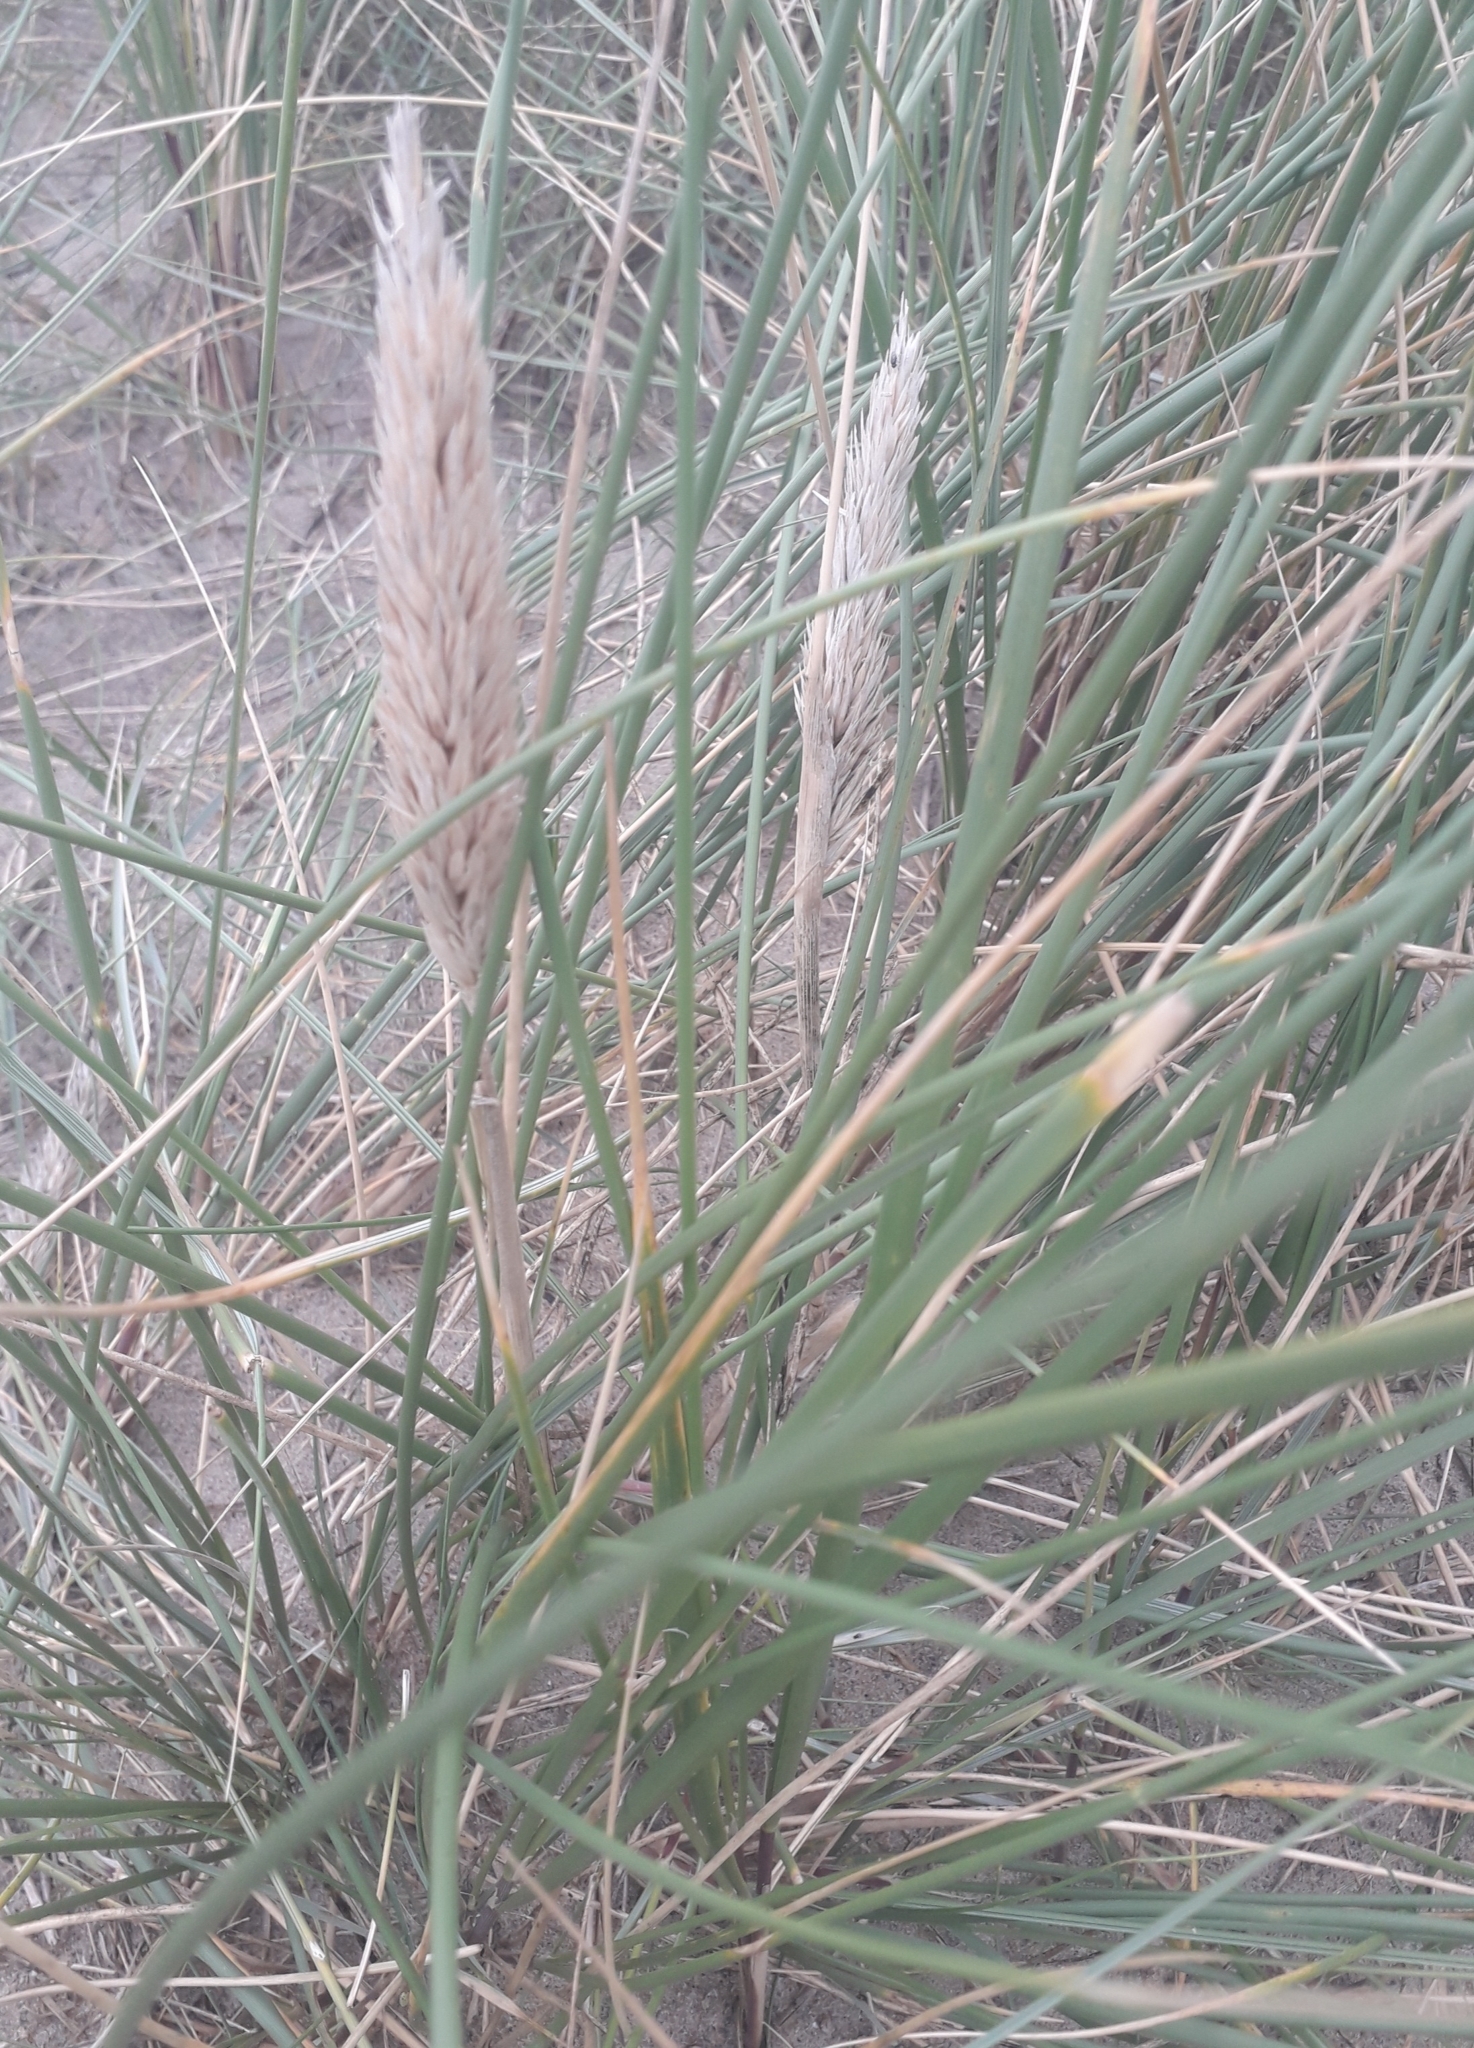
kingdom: Plantae
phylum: Tracheophyta
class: Liliopsida
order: Poales
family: Poaceae
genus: Calamagrostis
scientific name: Calamagrostis arenaria
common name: European beachgrass
